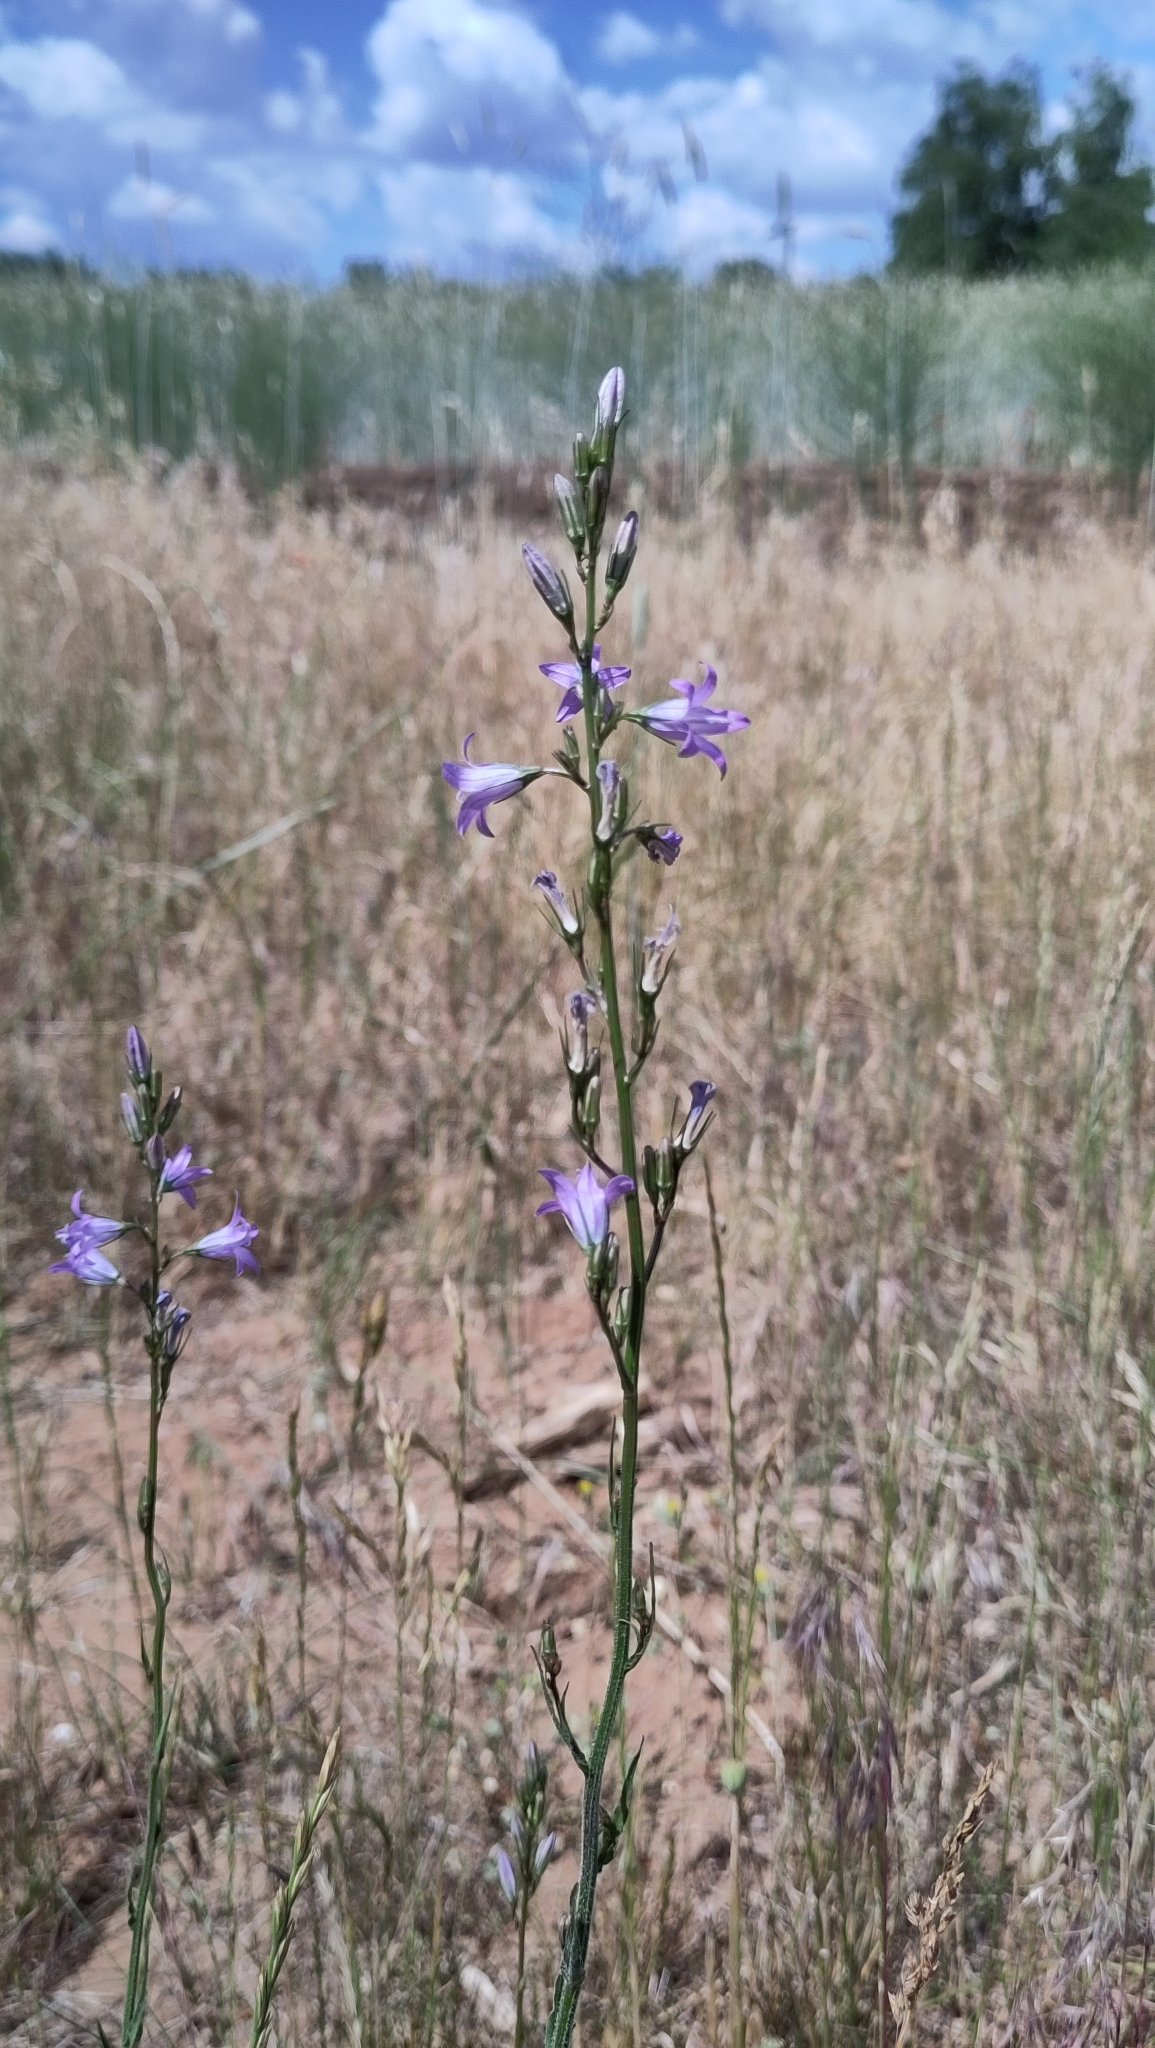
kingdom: Plantae
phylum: Tracheophyta
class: Magnoliopsida
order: Asterales
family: Campanulaceae
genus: Campanula
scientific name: Campanula rapunculus
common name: Rampion bellflower
